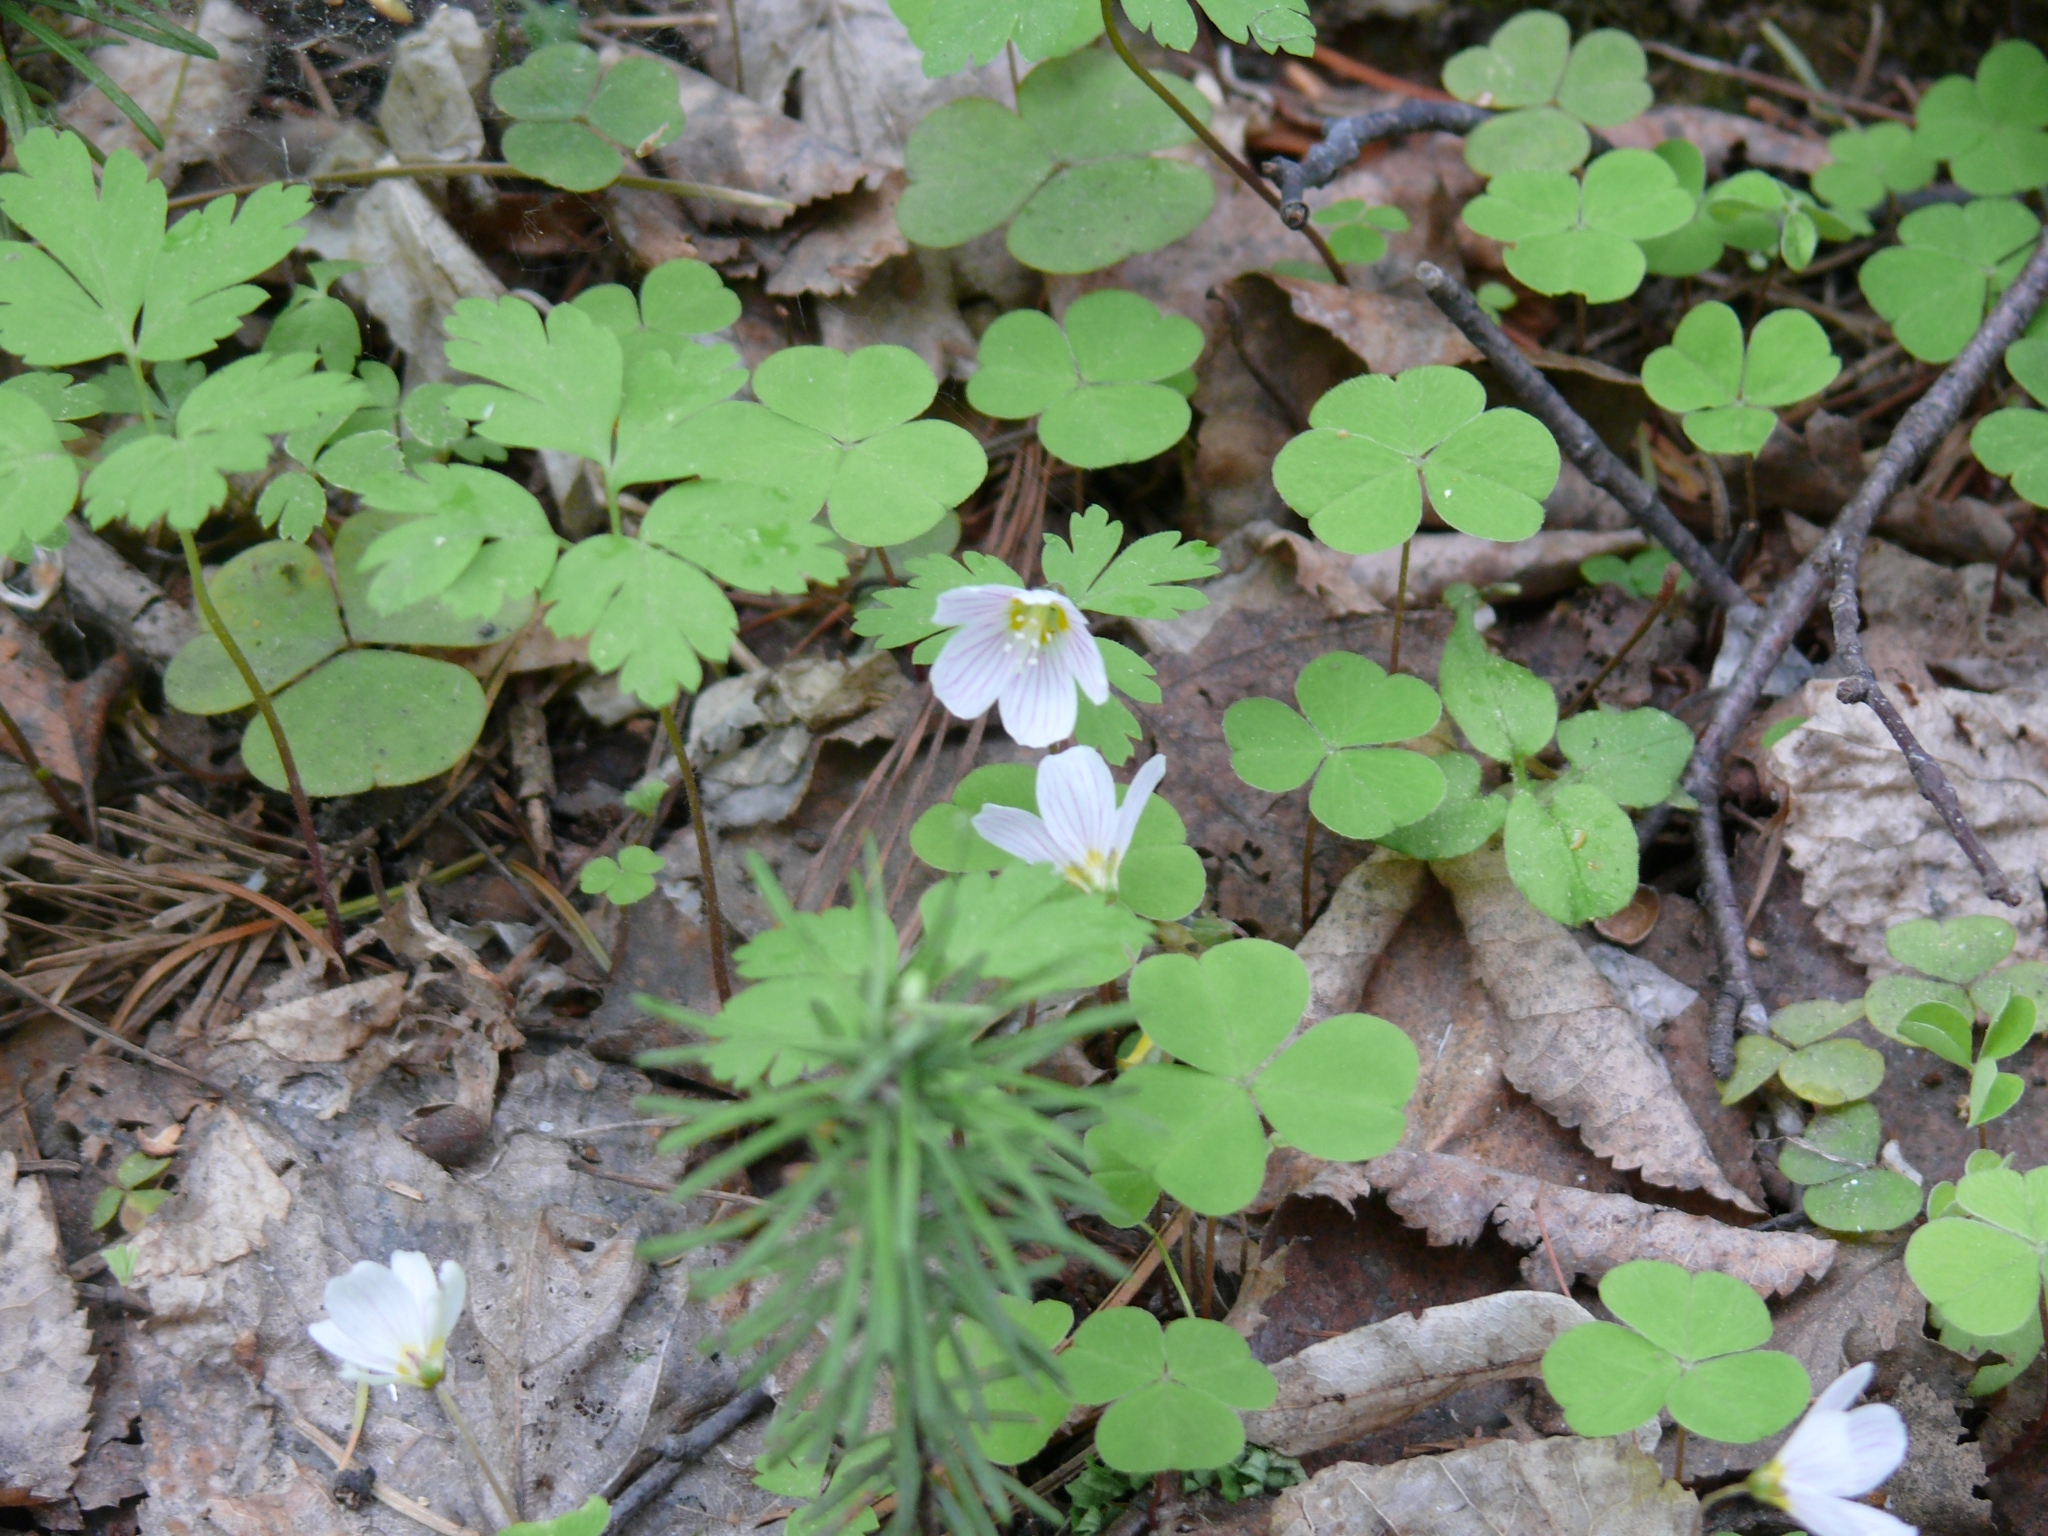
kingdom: Plantae
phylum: Tracheophyta
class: Magnoliopsida
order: Oxalidales
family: Oxalidaceae
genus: Oxalis
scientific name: Oxalis acetosella
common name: Wood-sorrel
